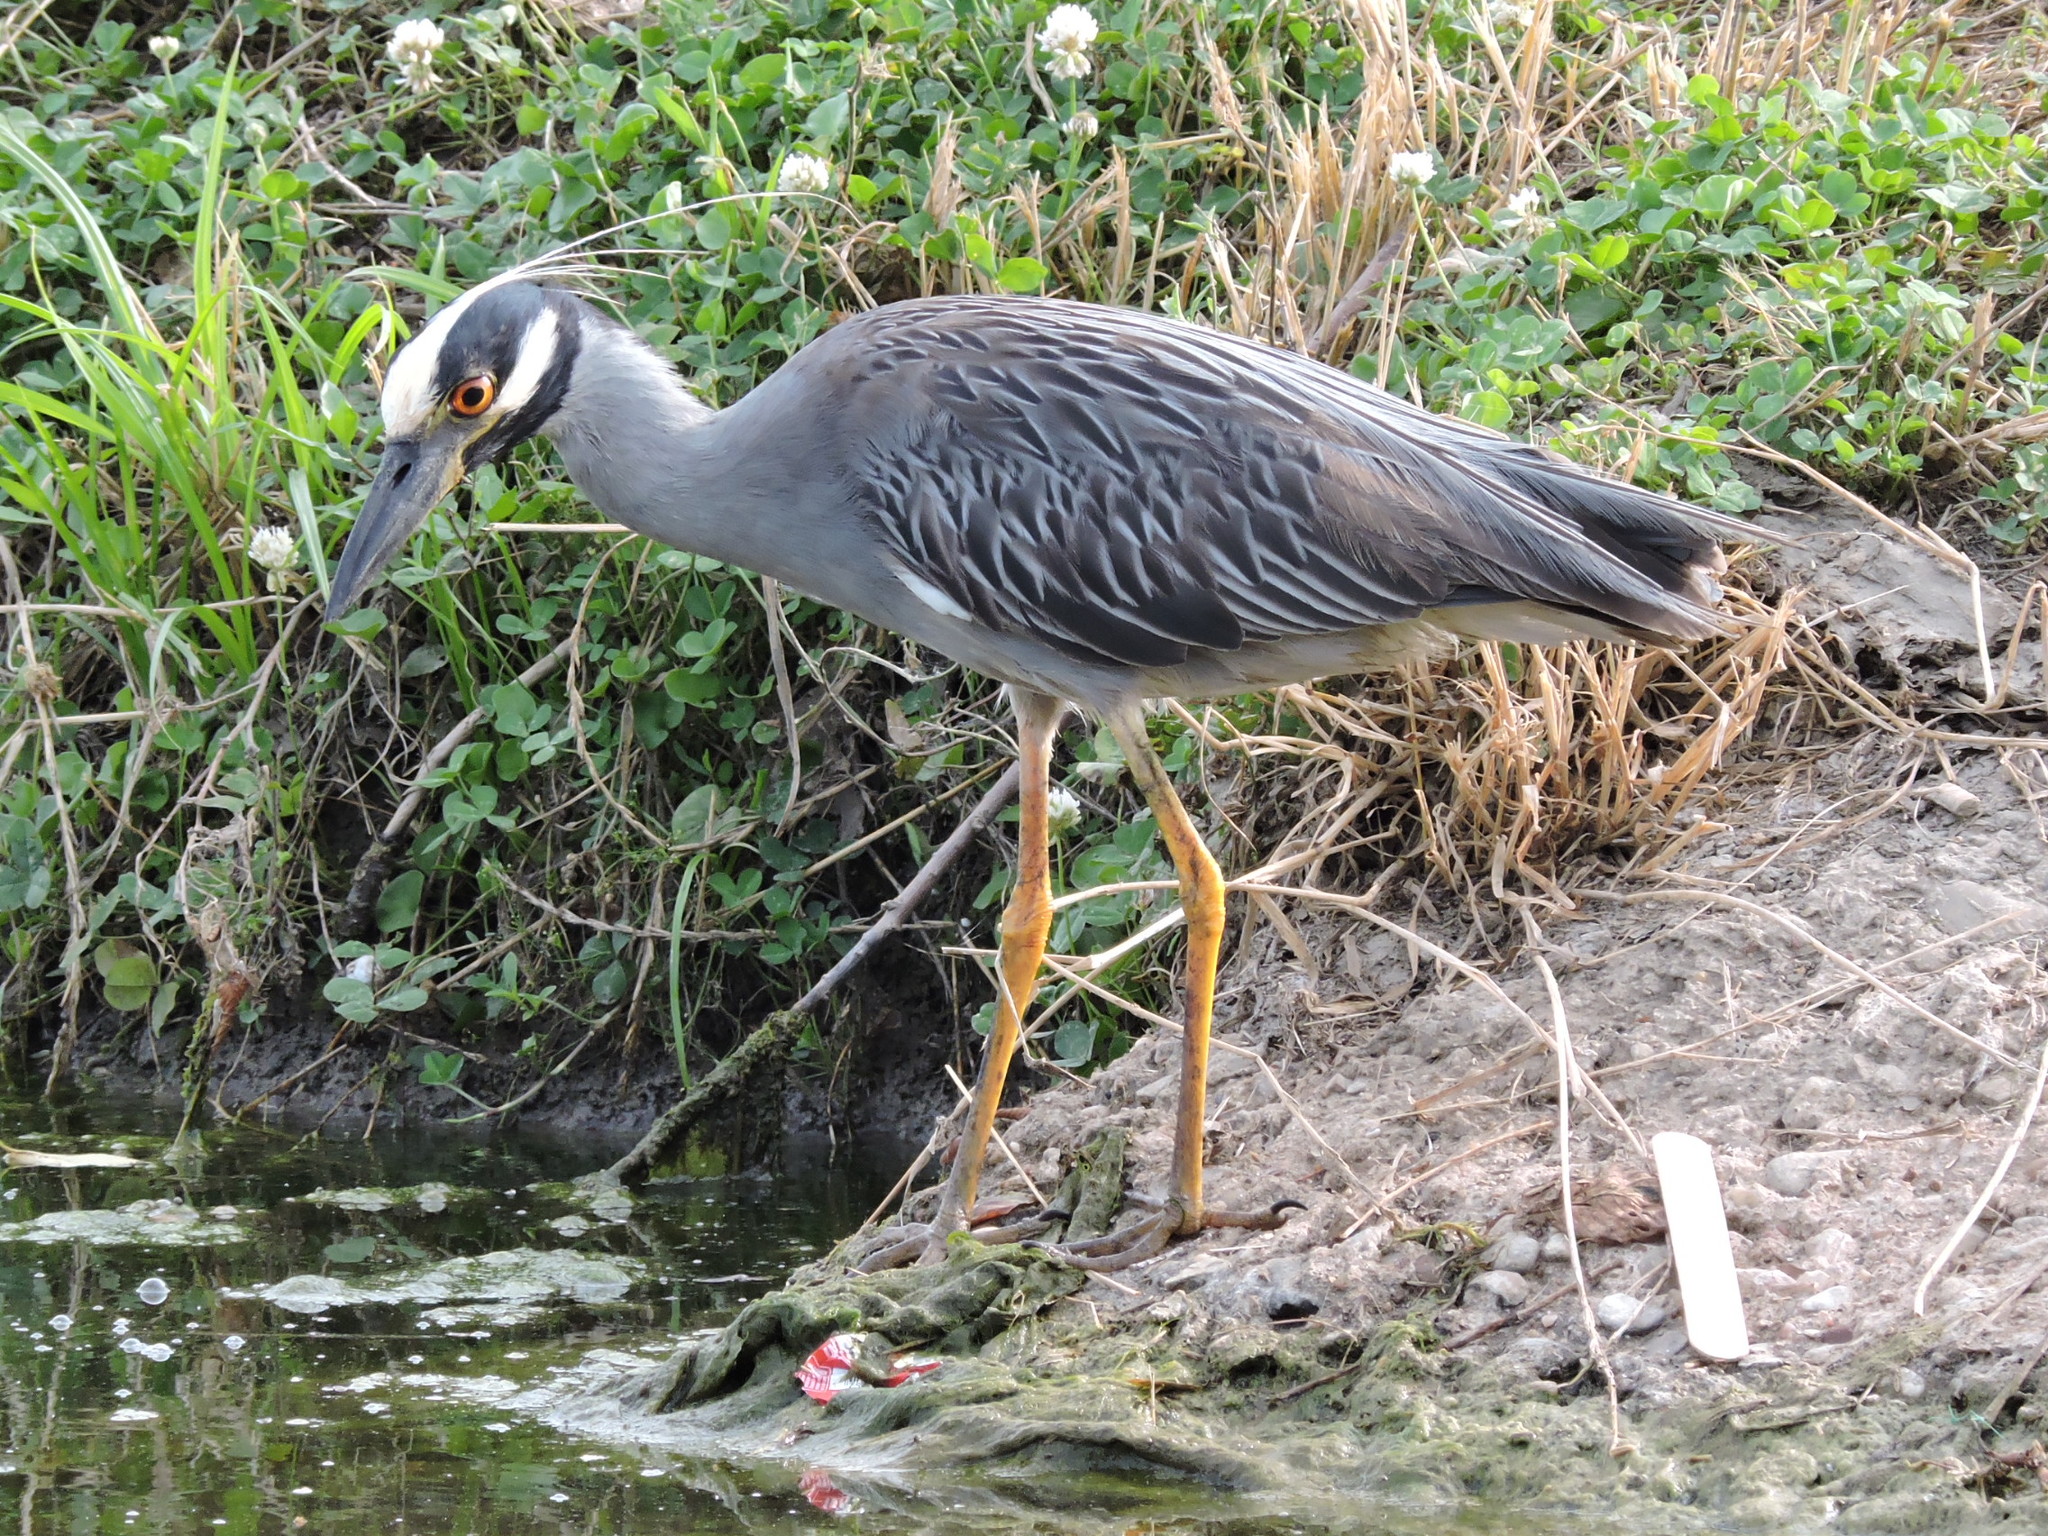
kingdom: Animalia
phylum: Chordata
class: Aves
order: Pelecaniformes
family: Ardeidae
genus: Nyctanassa
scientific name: Nyctanassa violacea
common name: Yellow-crowned night heron
